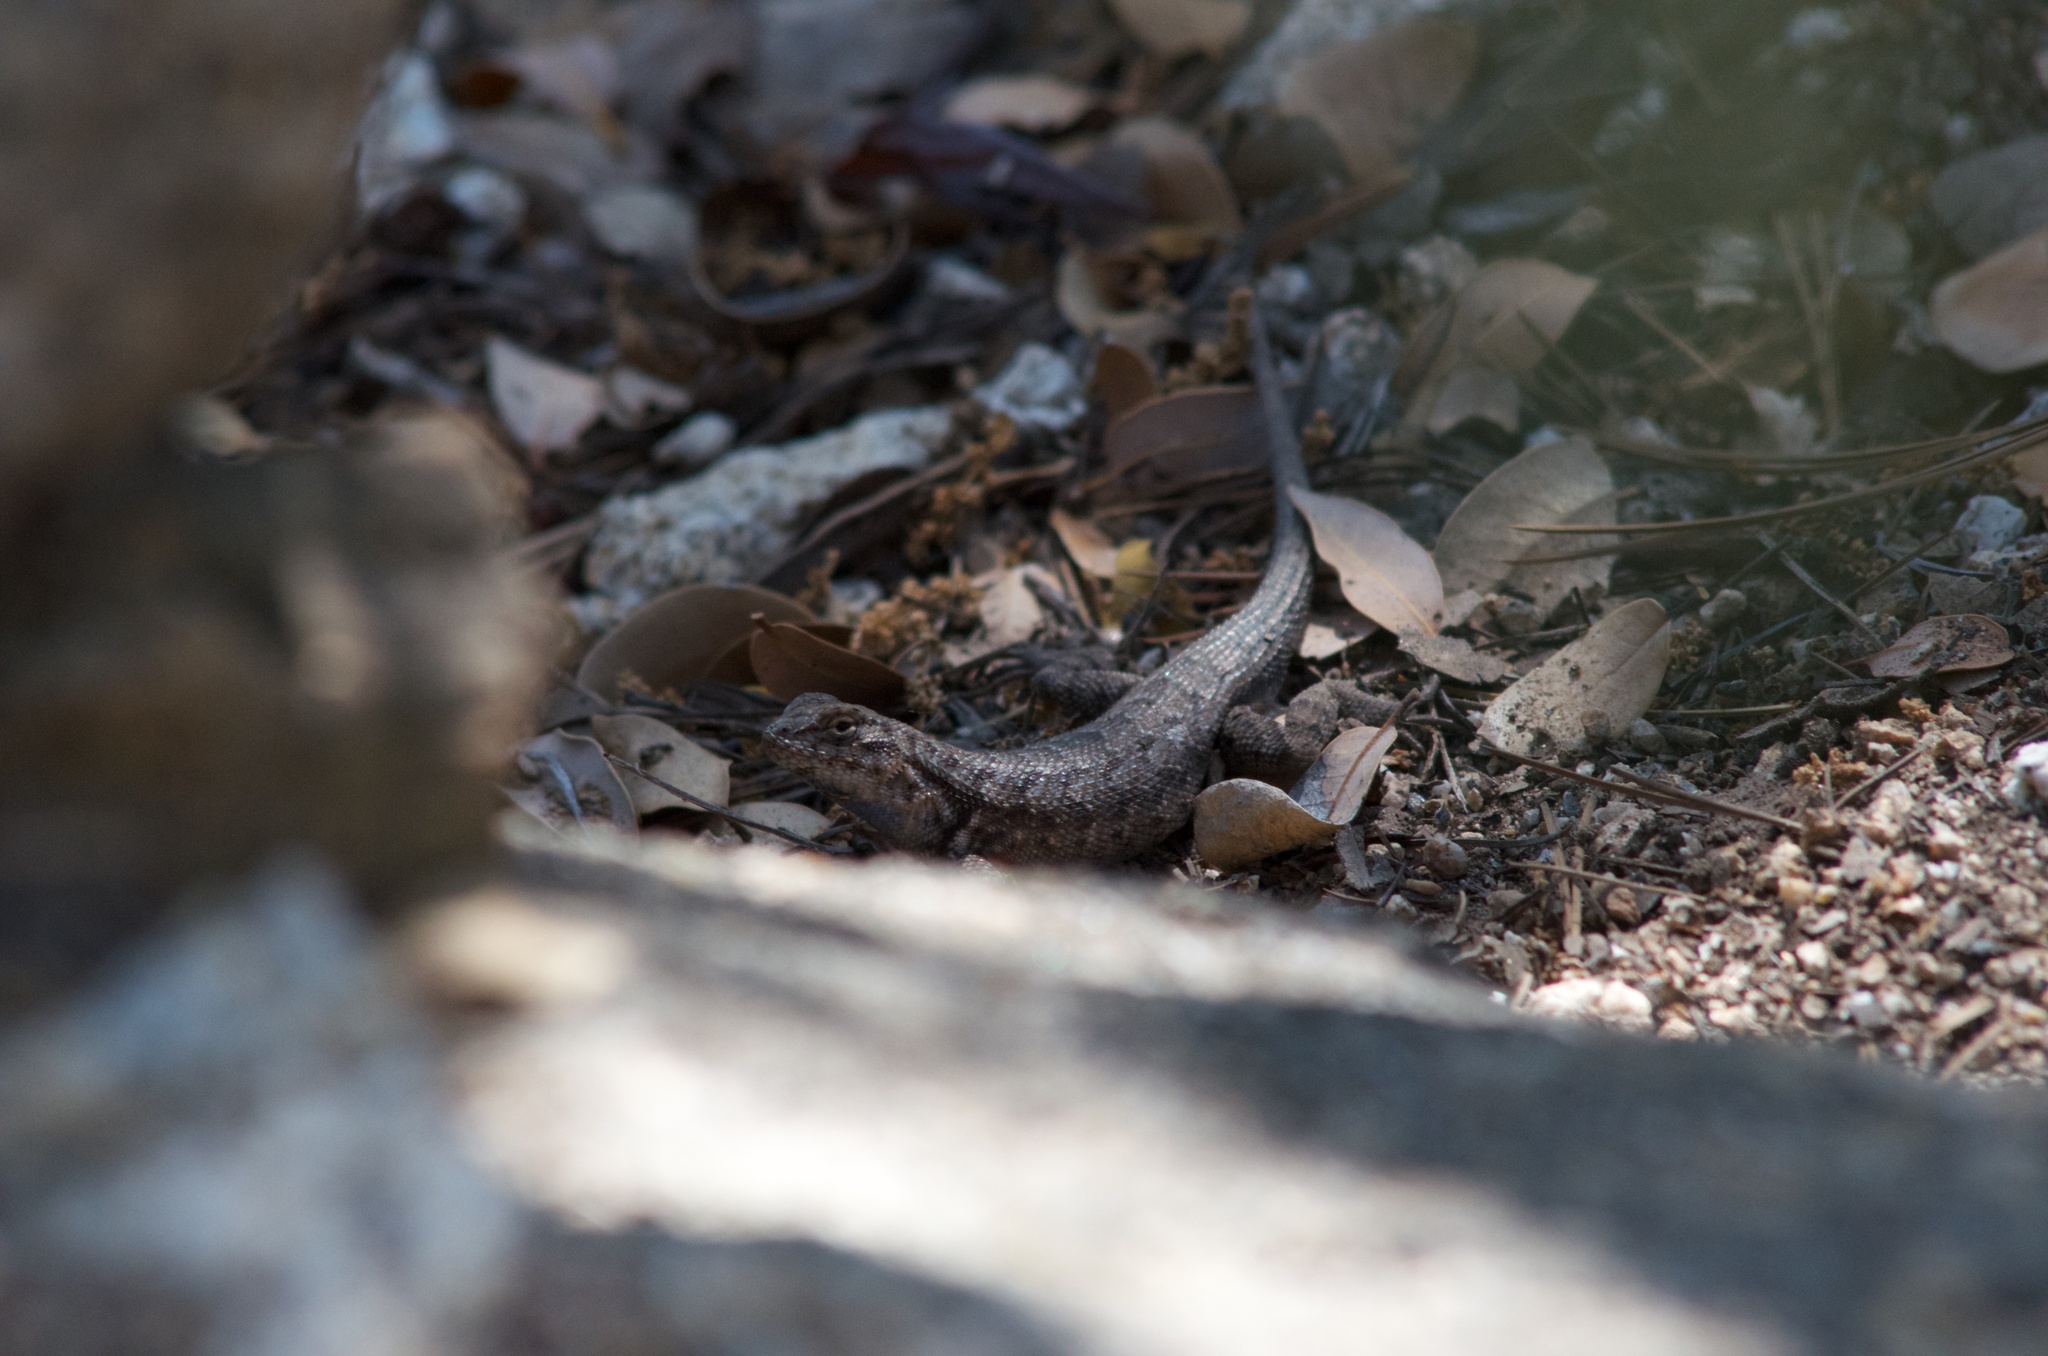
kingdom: Animalia
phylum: Chordata
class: Squamata
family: Phrynosomatidae
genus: Sceloporus
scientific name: Sceloporus graciosus
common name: Sagebrush lizard
